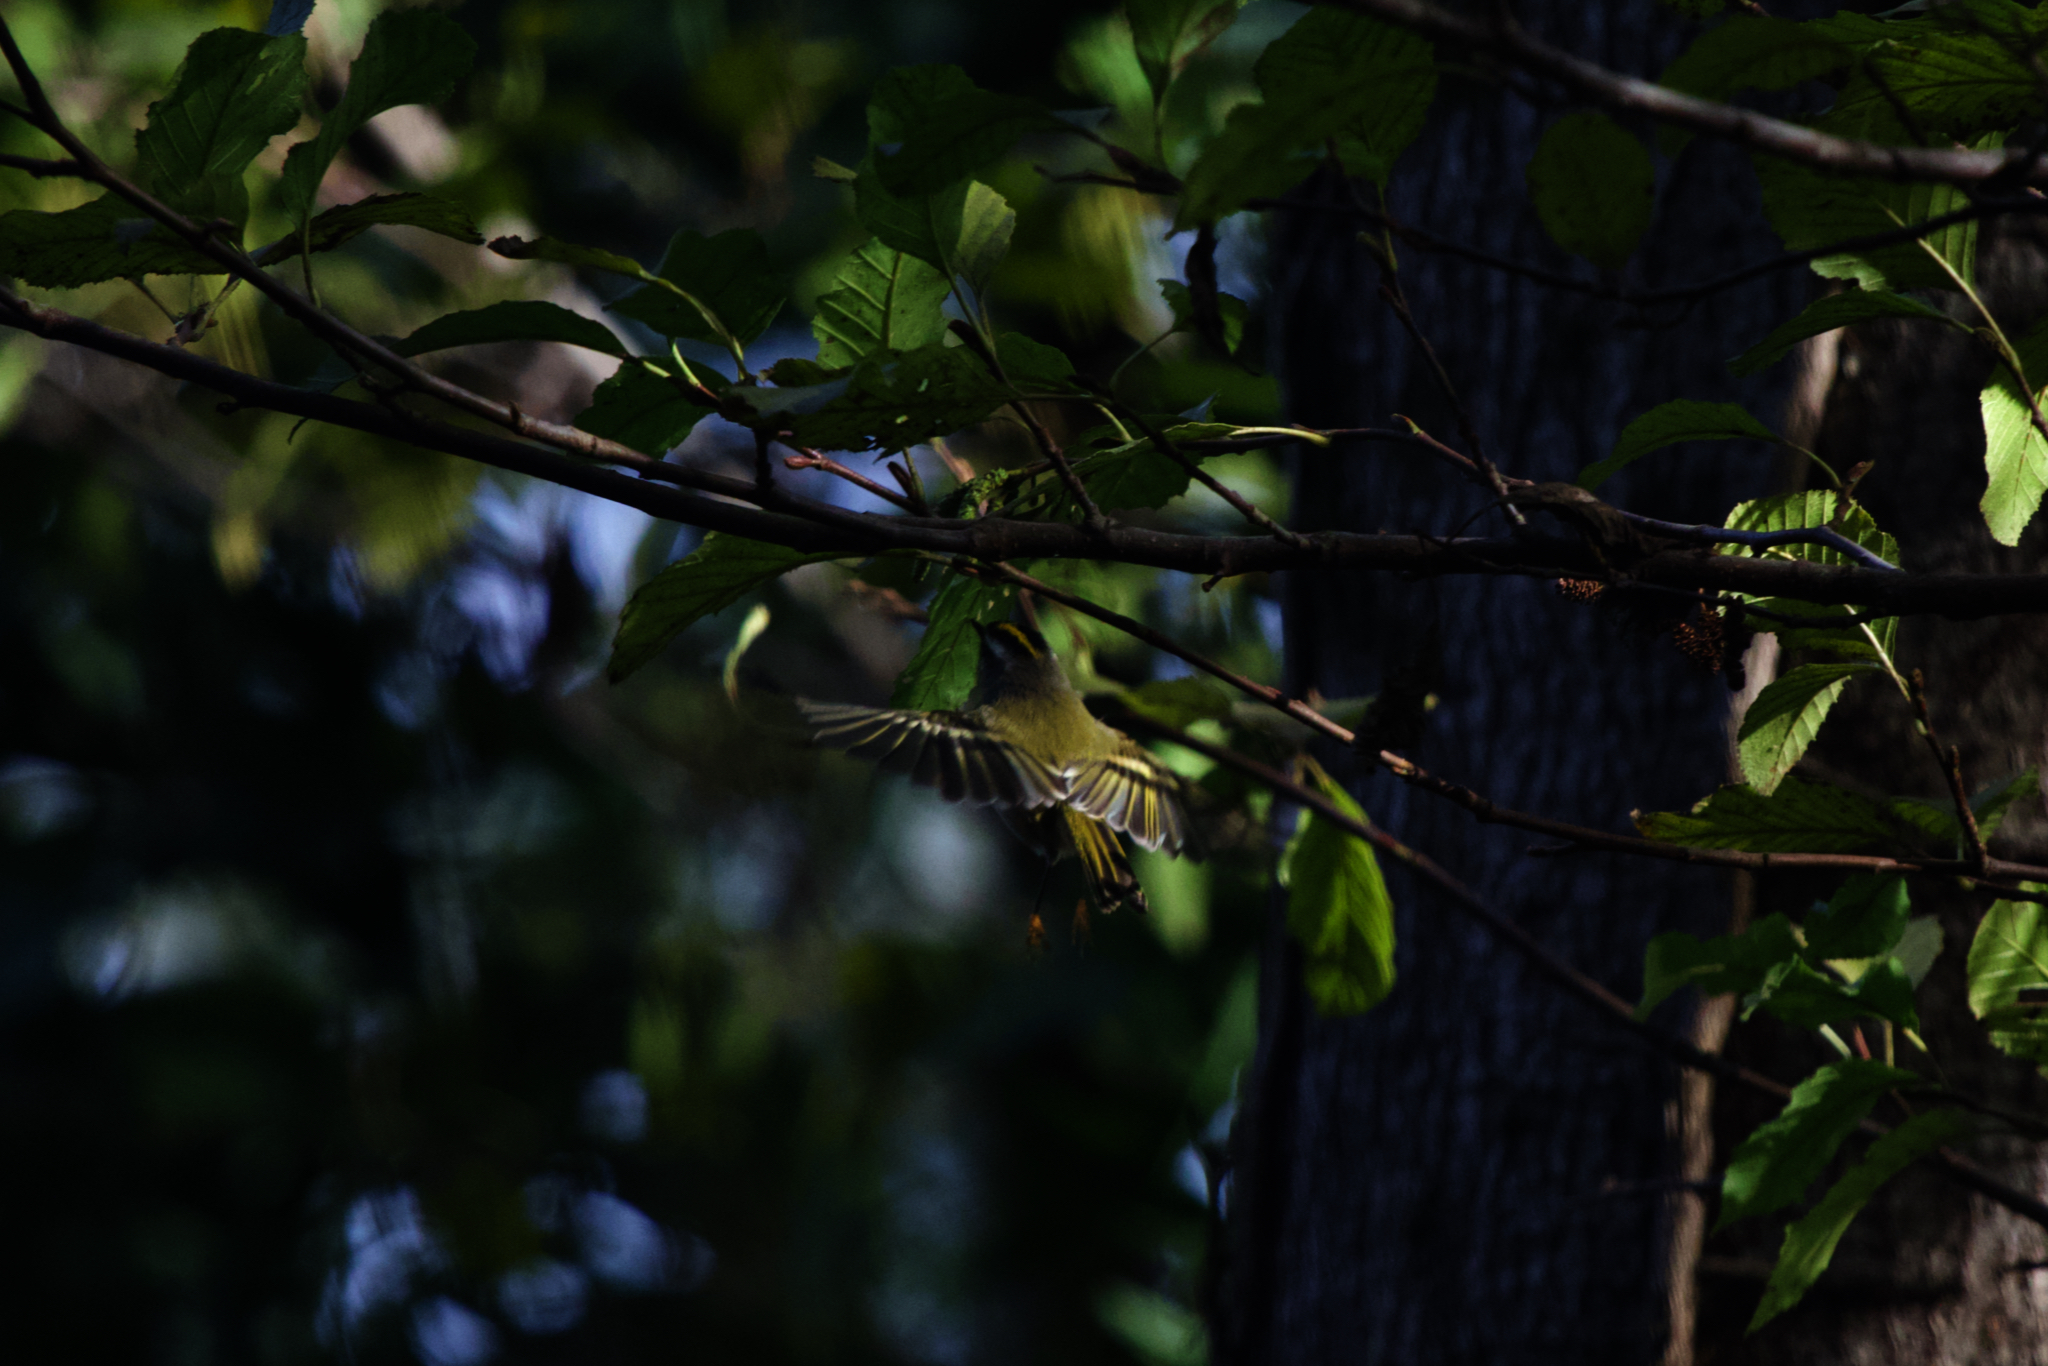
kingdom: Animalia
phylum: Chordata
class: Aves
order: Passeriformes
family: Regulidae
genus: Regulus
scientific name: Regulus satrapa
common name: Golden-crowned kinglet
